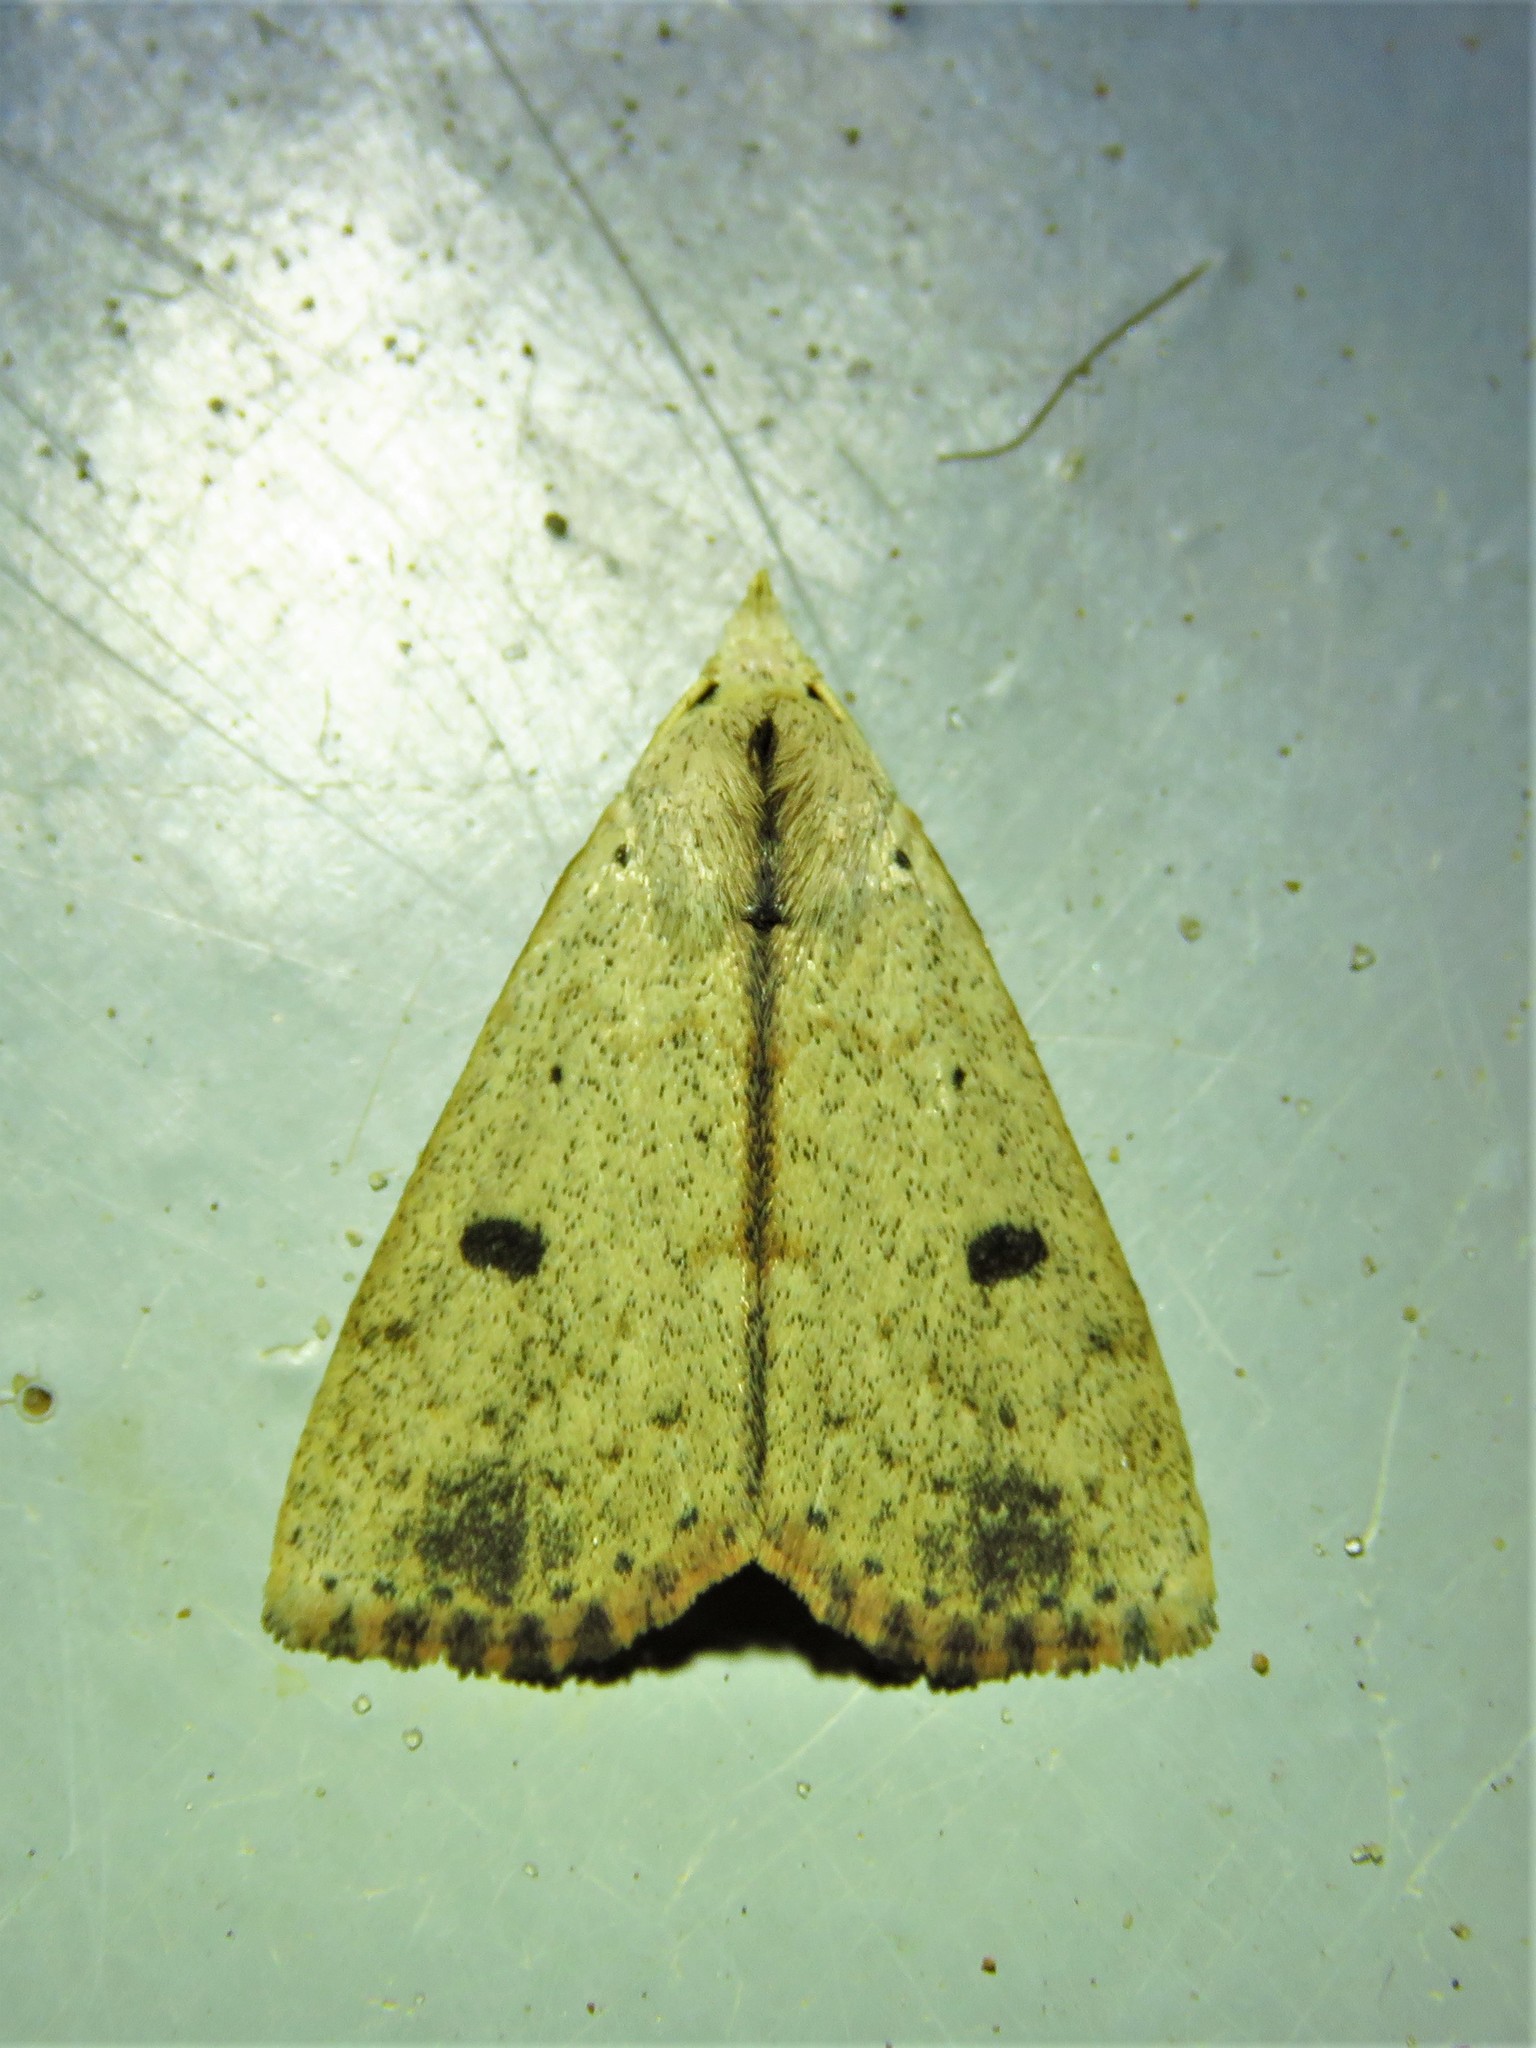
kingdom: Animalia
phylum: Arthropoda
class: Insecta
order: Lepidoptera
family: Erebidae
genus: Scolecocampa
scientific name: Scolecocampa liburna
